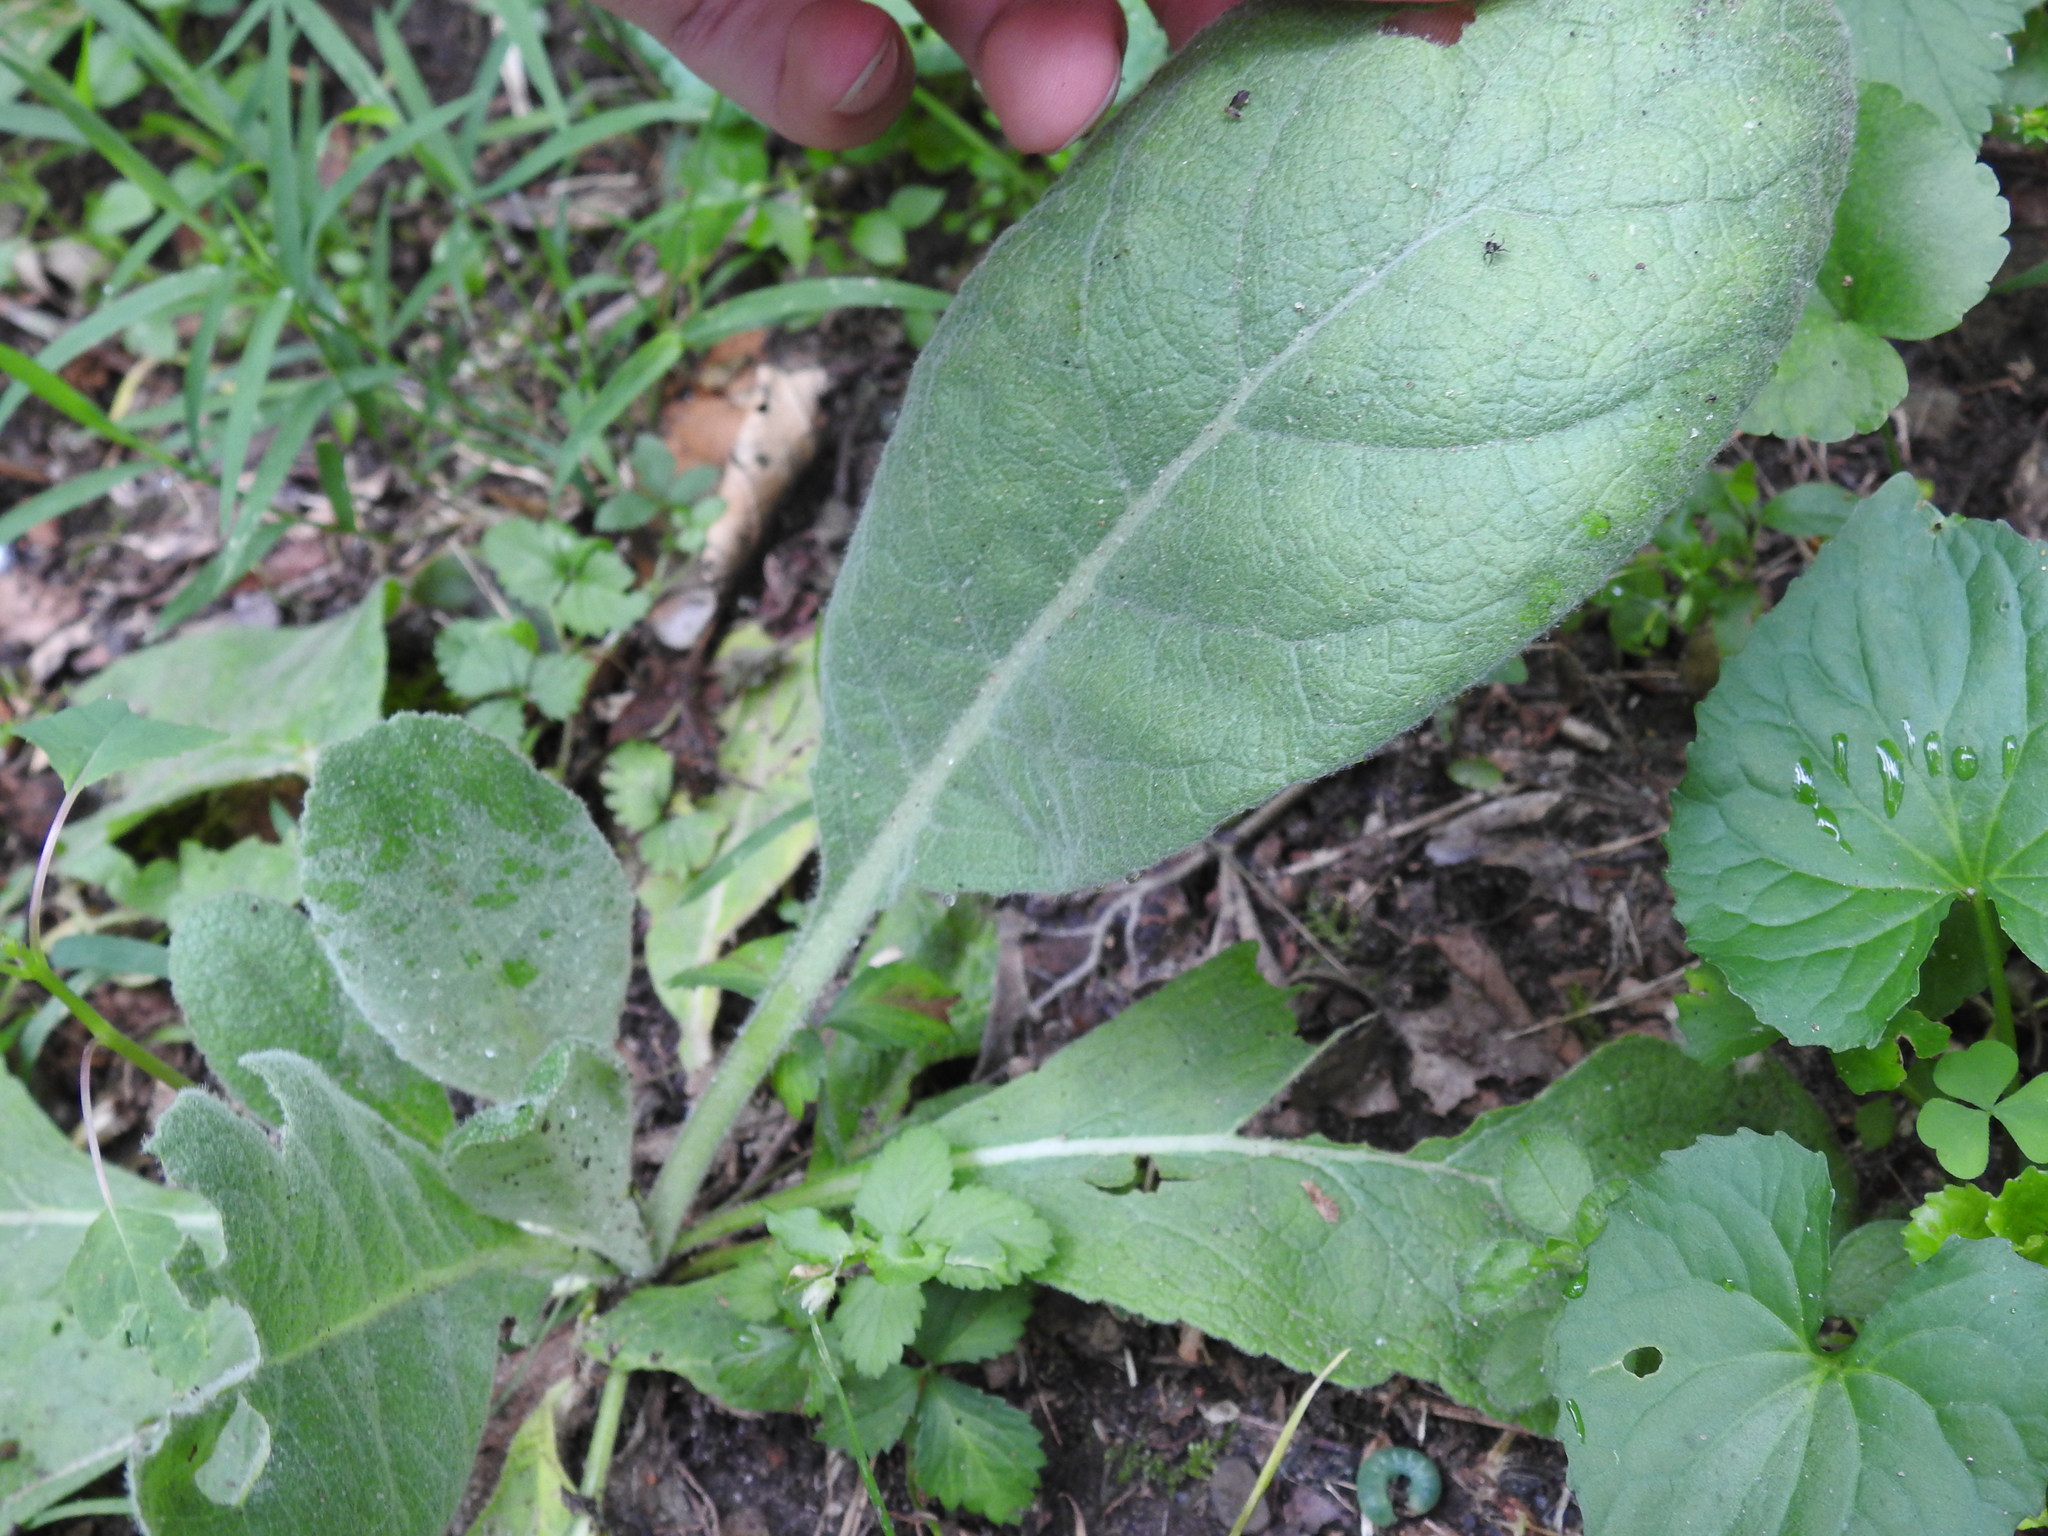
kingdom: Plantae
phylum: Tracheophyta
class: Magnoliopsida
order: Lamiales
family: Scrophulariaceae
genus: Verbascum
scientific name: Verbascum thapsus
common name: Common mullein
